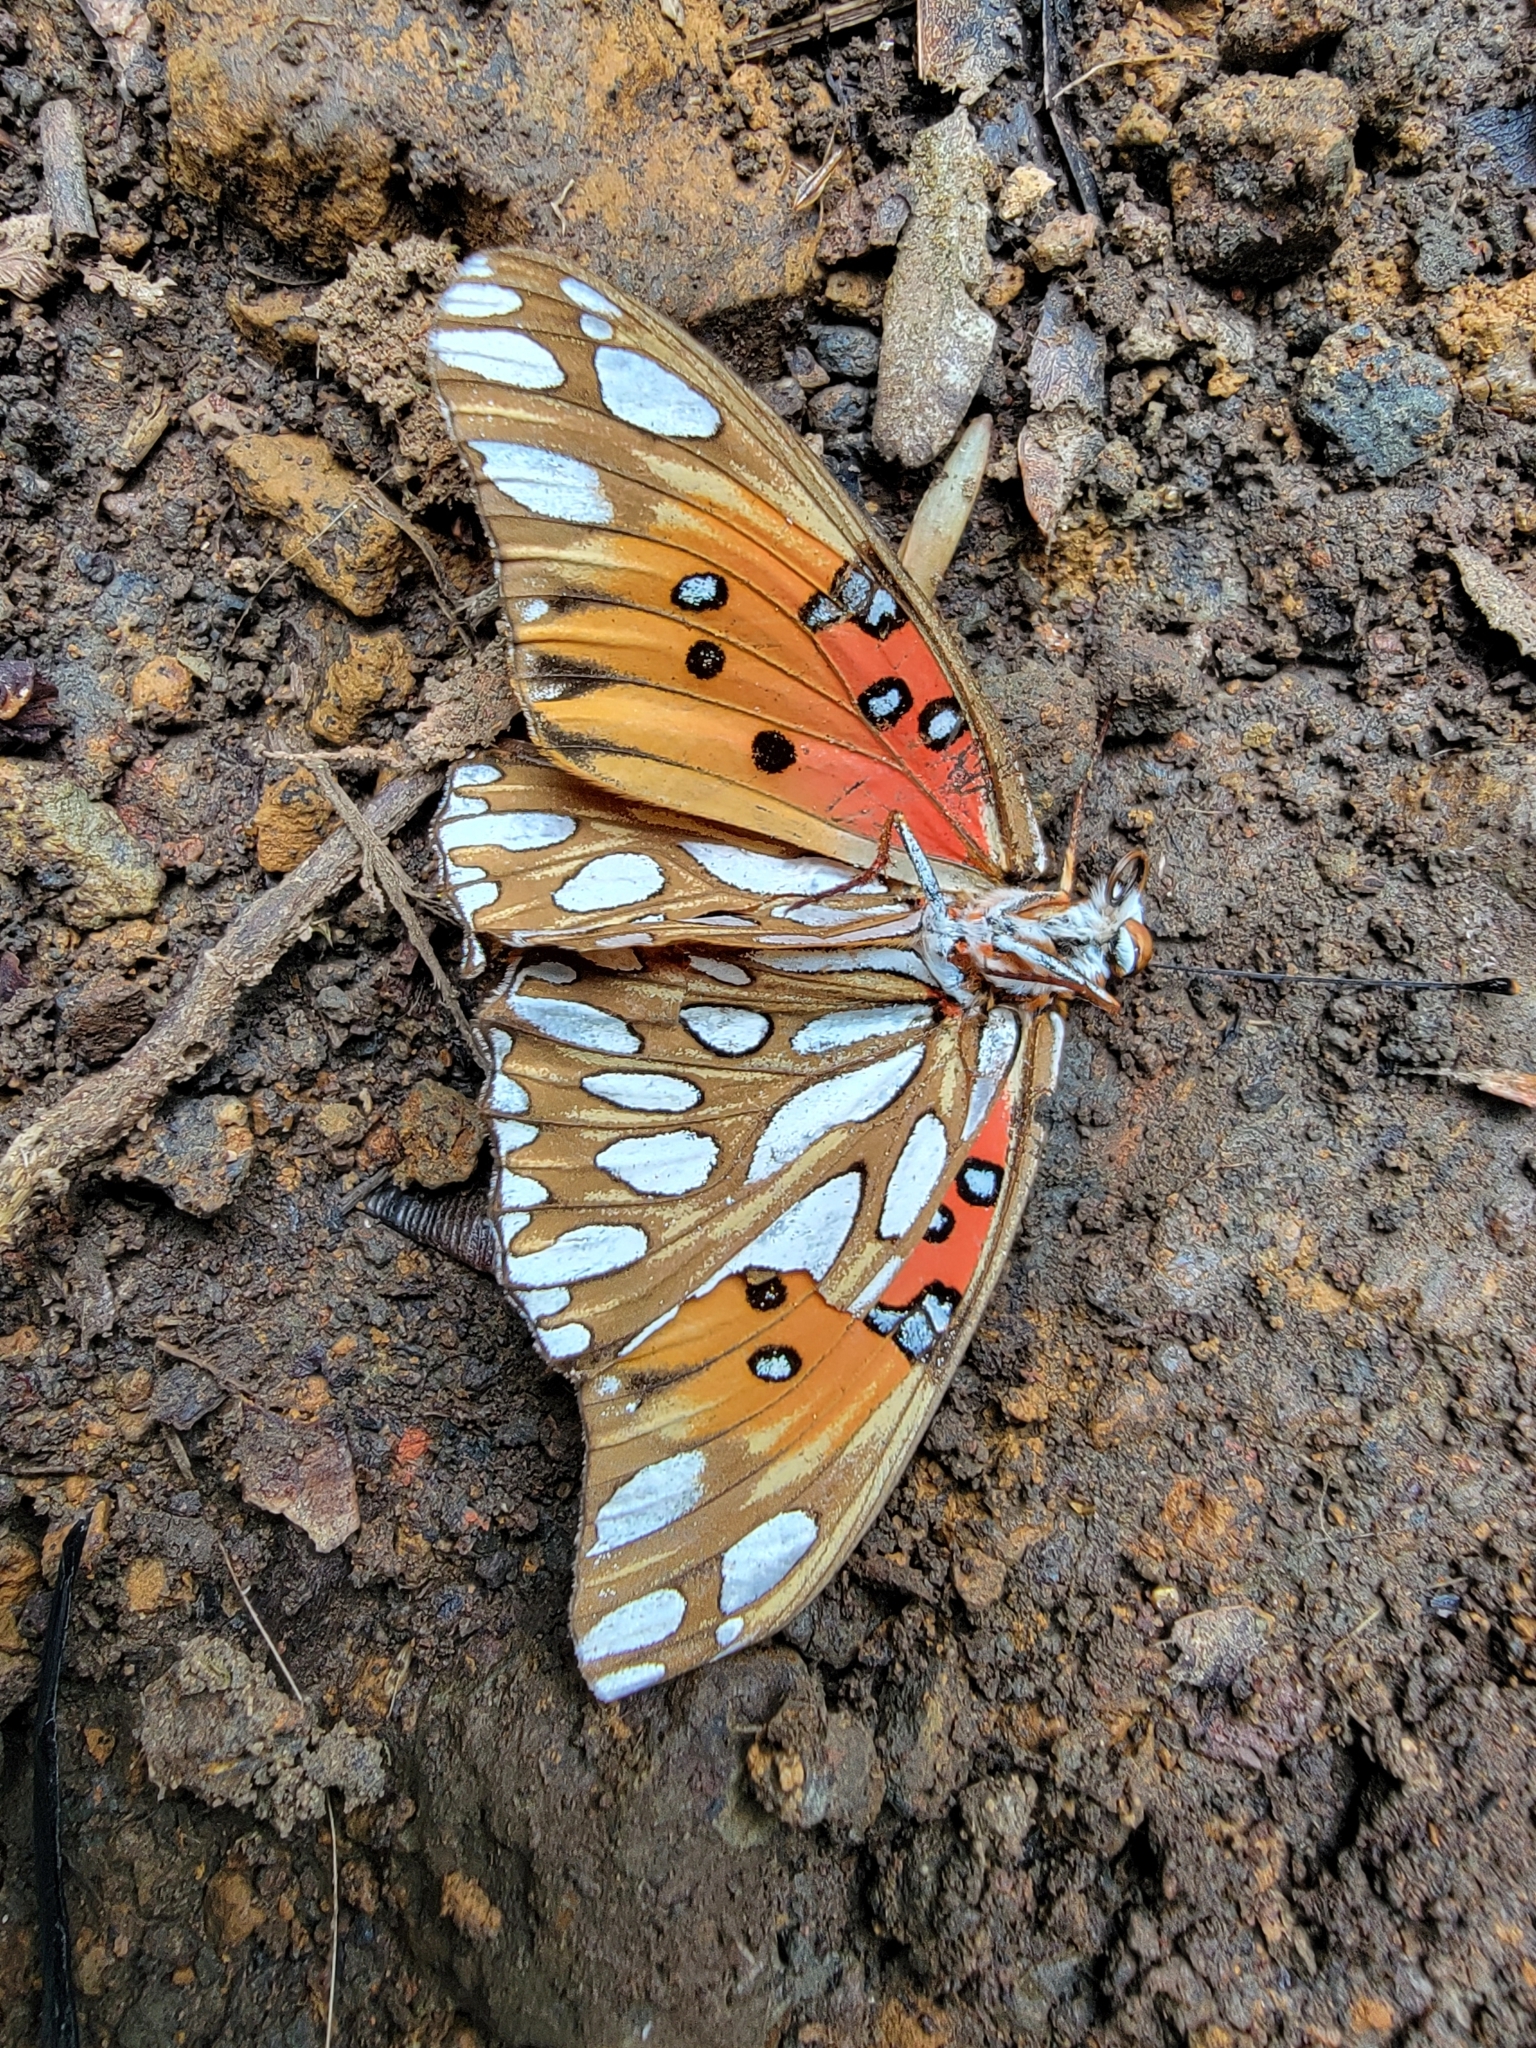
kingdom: Animalia
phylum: Arthropoda
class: Insecta
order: Lepidoptera
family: Nymphalidae
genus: Dione
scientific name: Dione vanillae
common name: Gulf fritillary
